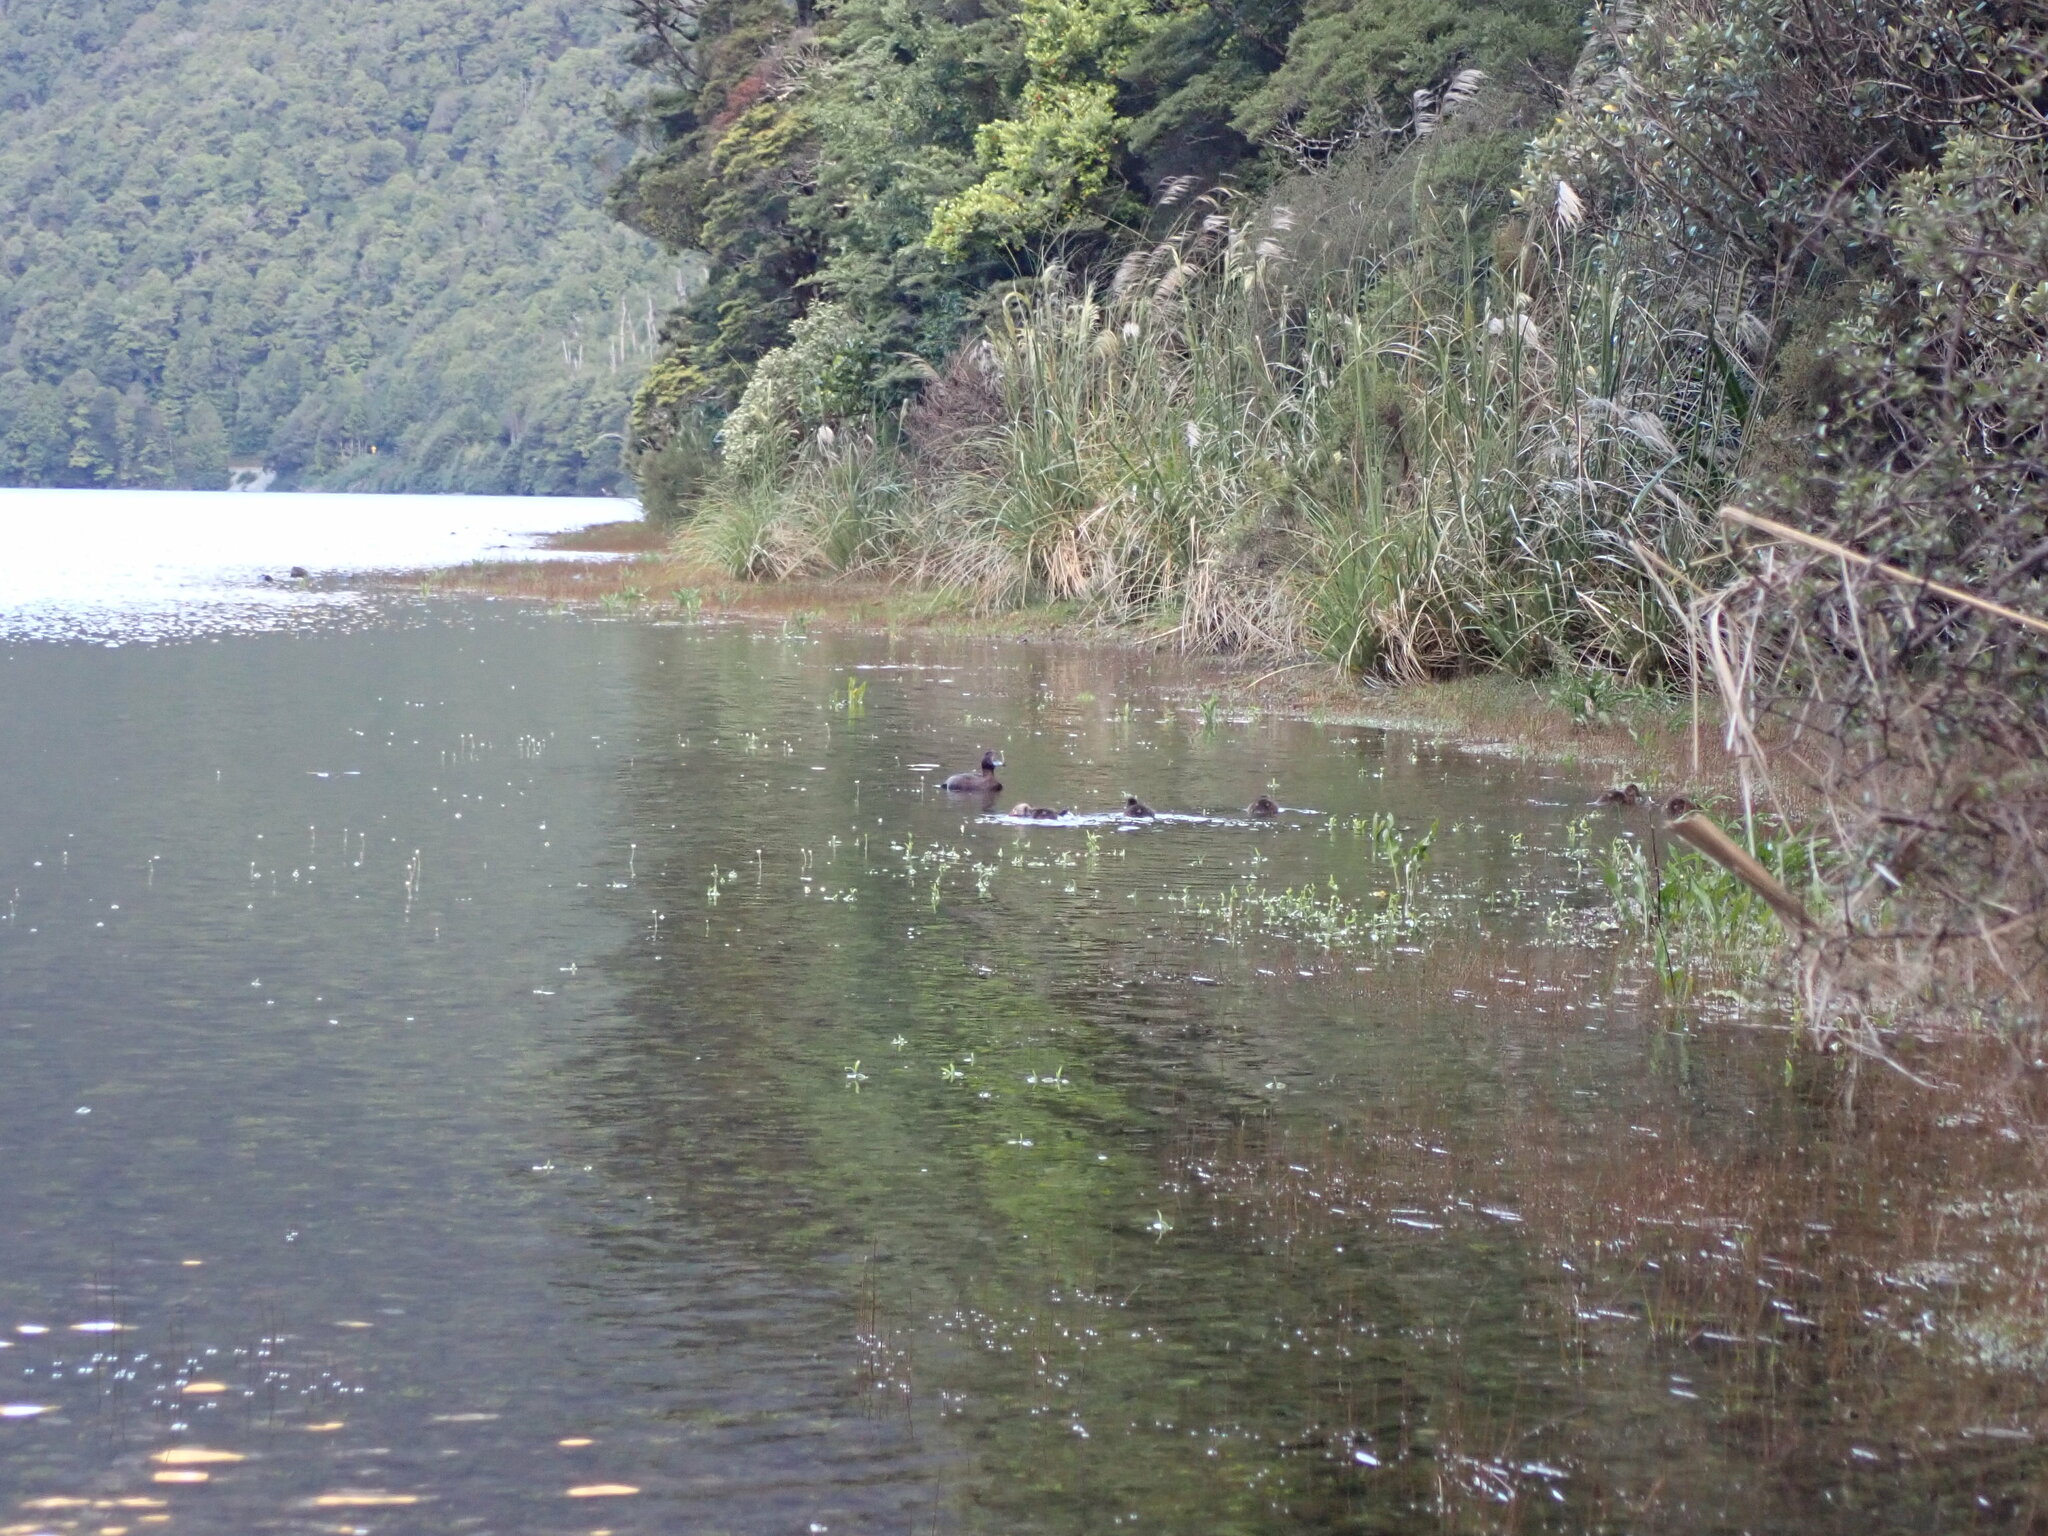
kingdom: Animalia
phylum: Chordata
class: Aves
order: Anseriformes
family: Anatidae
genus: Aythya
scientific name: Aythya novaeseelandiae
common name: New zealand scaup
